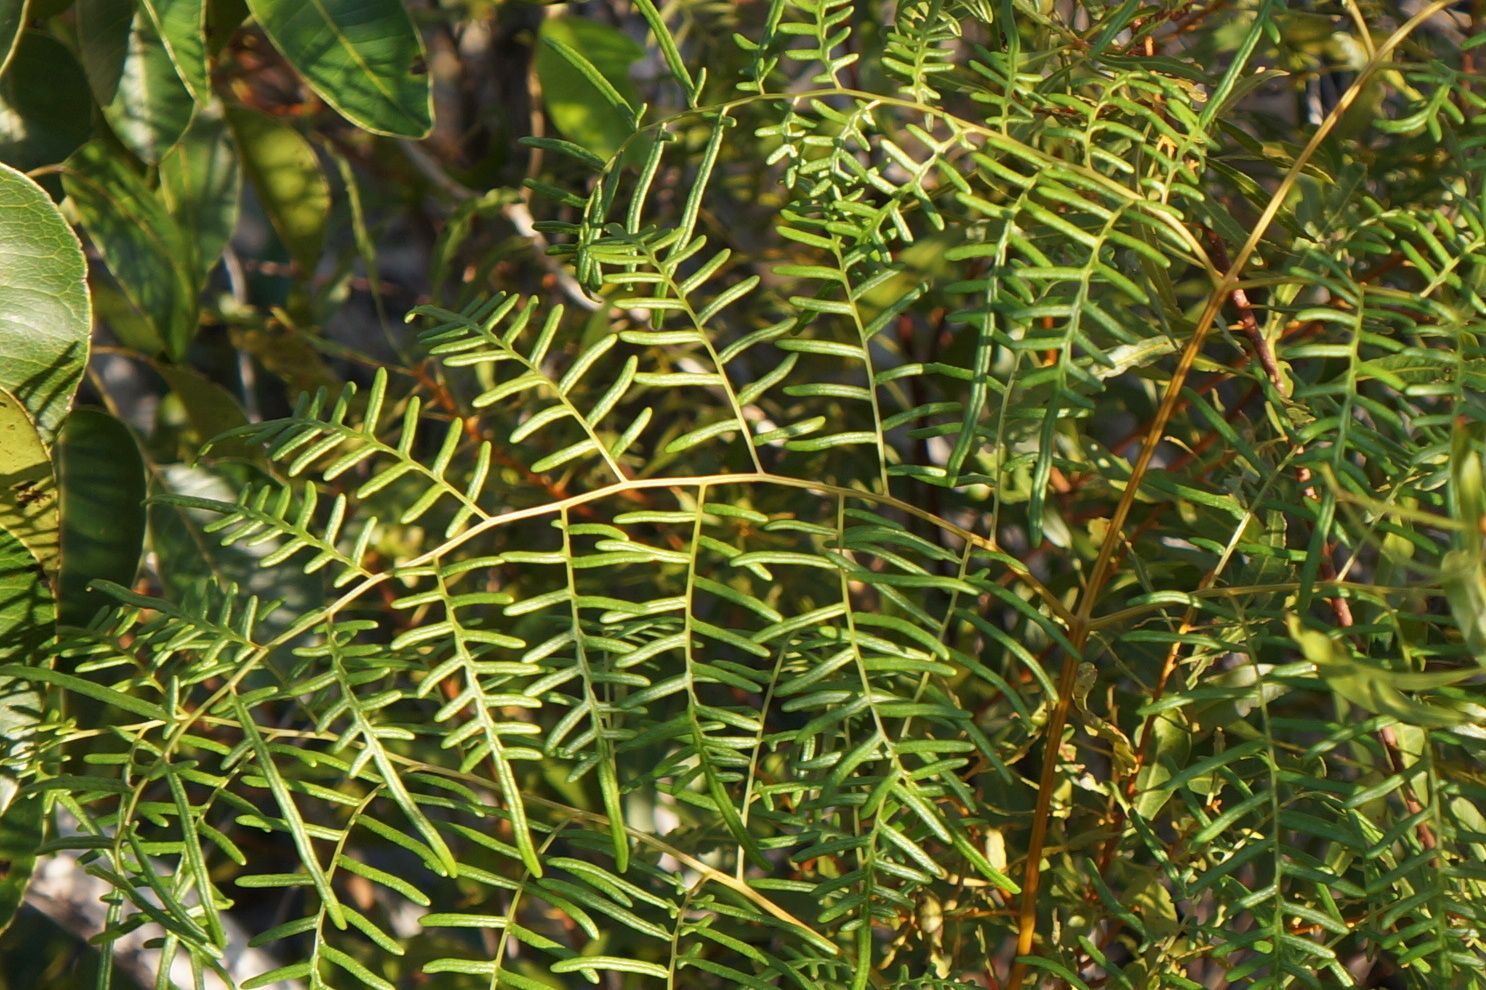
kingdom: Plantae
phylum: Tracheophyta
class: Polypodiopsida
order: Polypodiales
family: Dennstaedtiaceae
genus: Pteridium
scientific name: Pteridium caudatum
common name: Southern bracken fern
